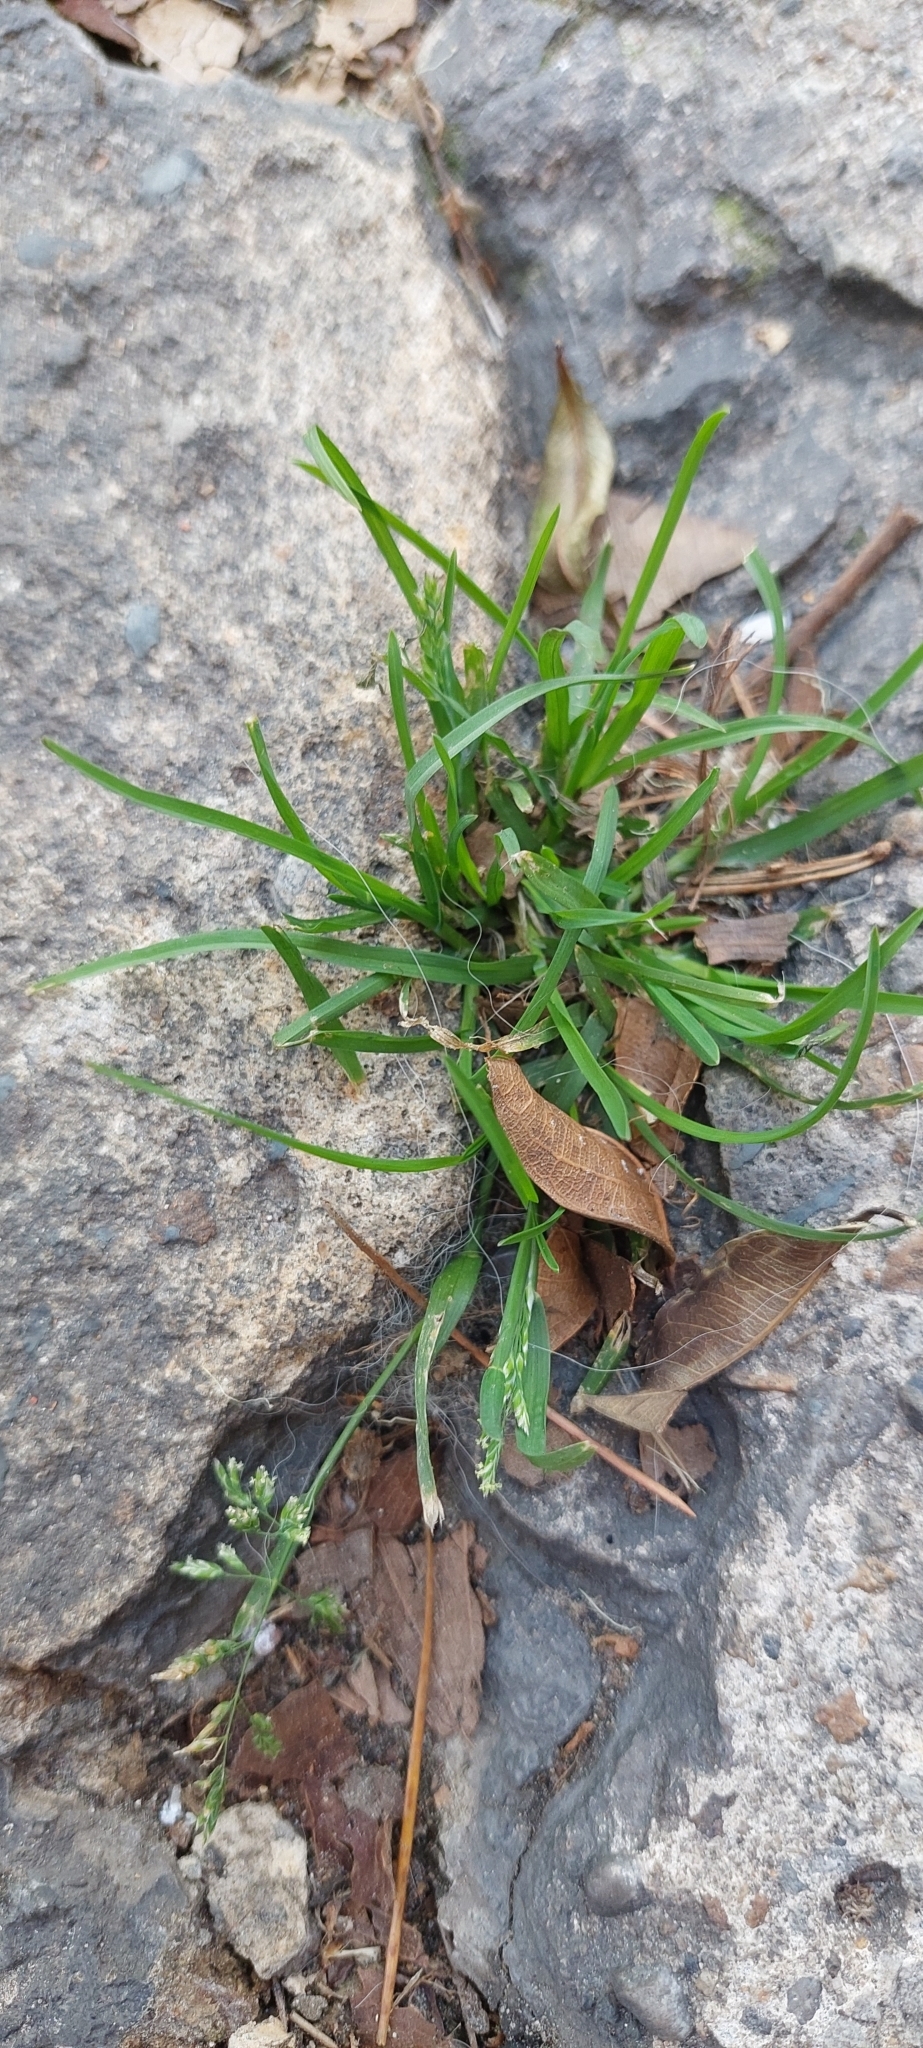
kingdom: Plantae
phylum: Tracheophyta
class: Liliopsida
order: Poales
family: Poaceae
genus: Poa
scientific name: Poa annua
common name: Annual bluegrass
